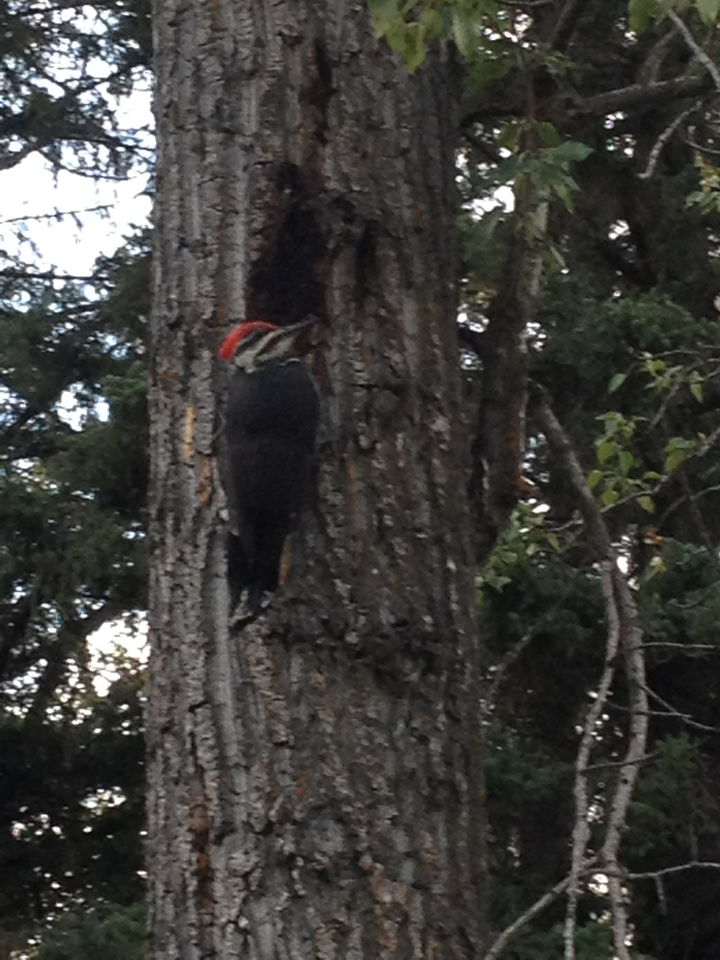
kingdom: Animalia
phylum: Chordata
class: Aves
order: Piciformes
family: Picidae
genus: Dryocopus
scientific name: Dryocopus pileatus
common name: Pileated woodpecker
